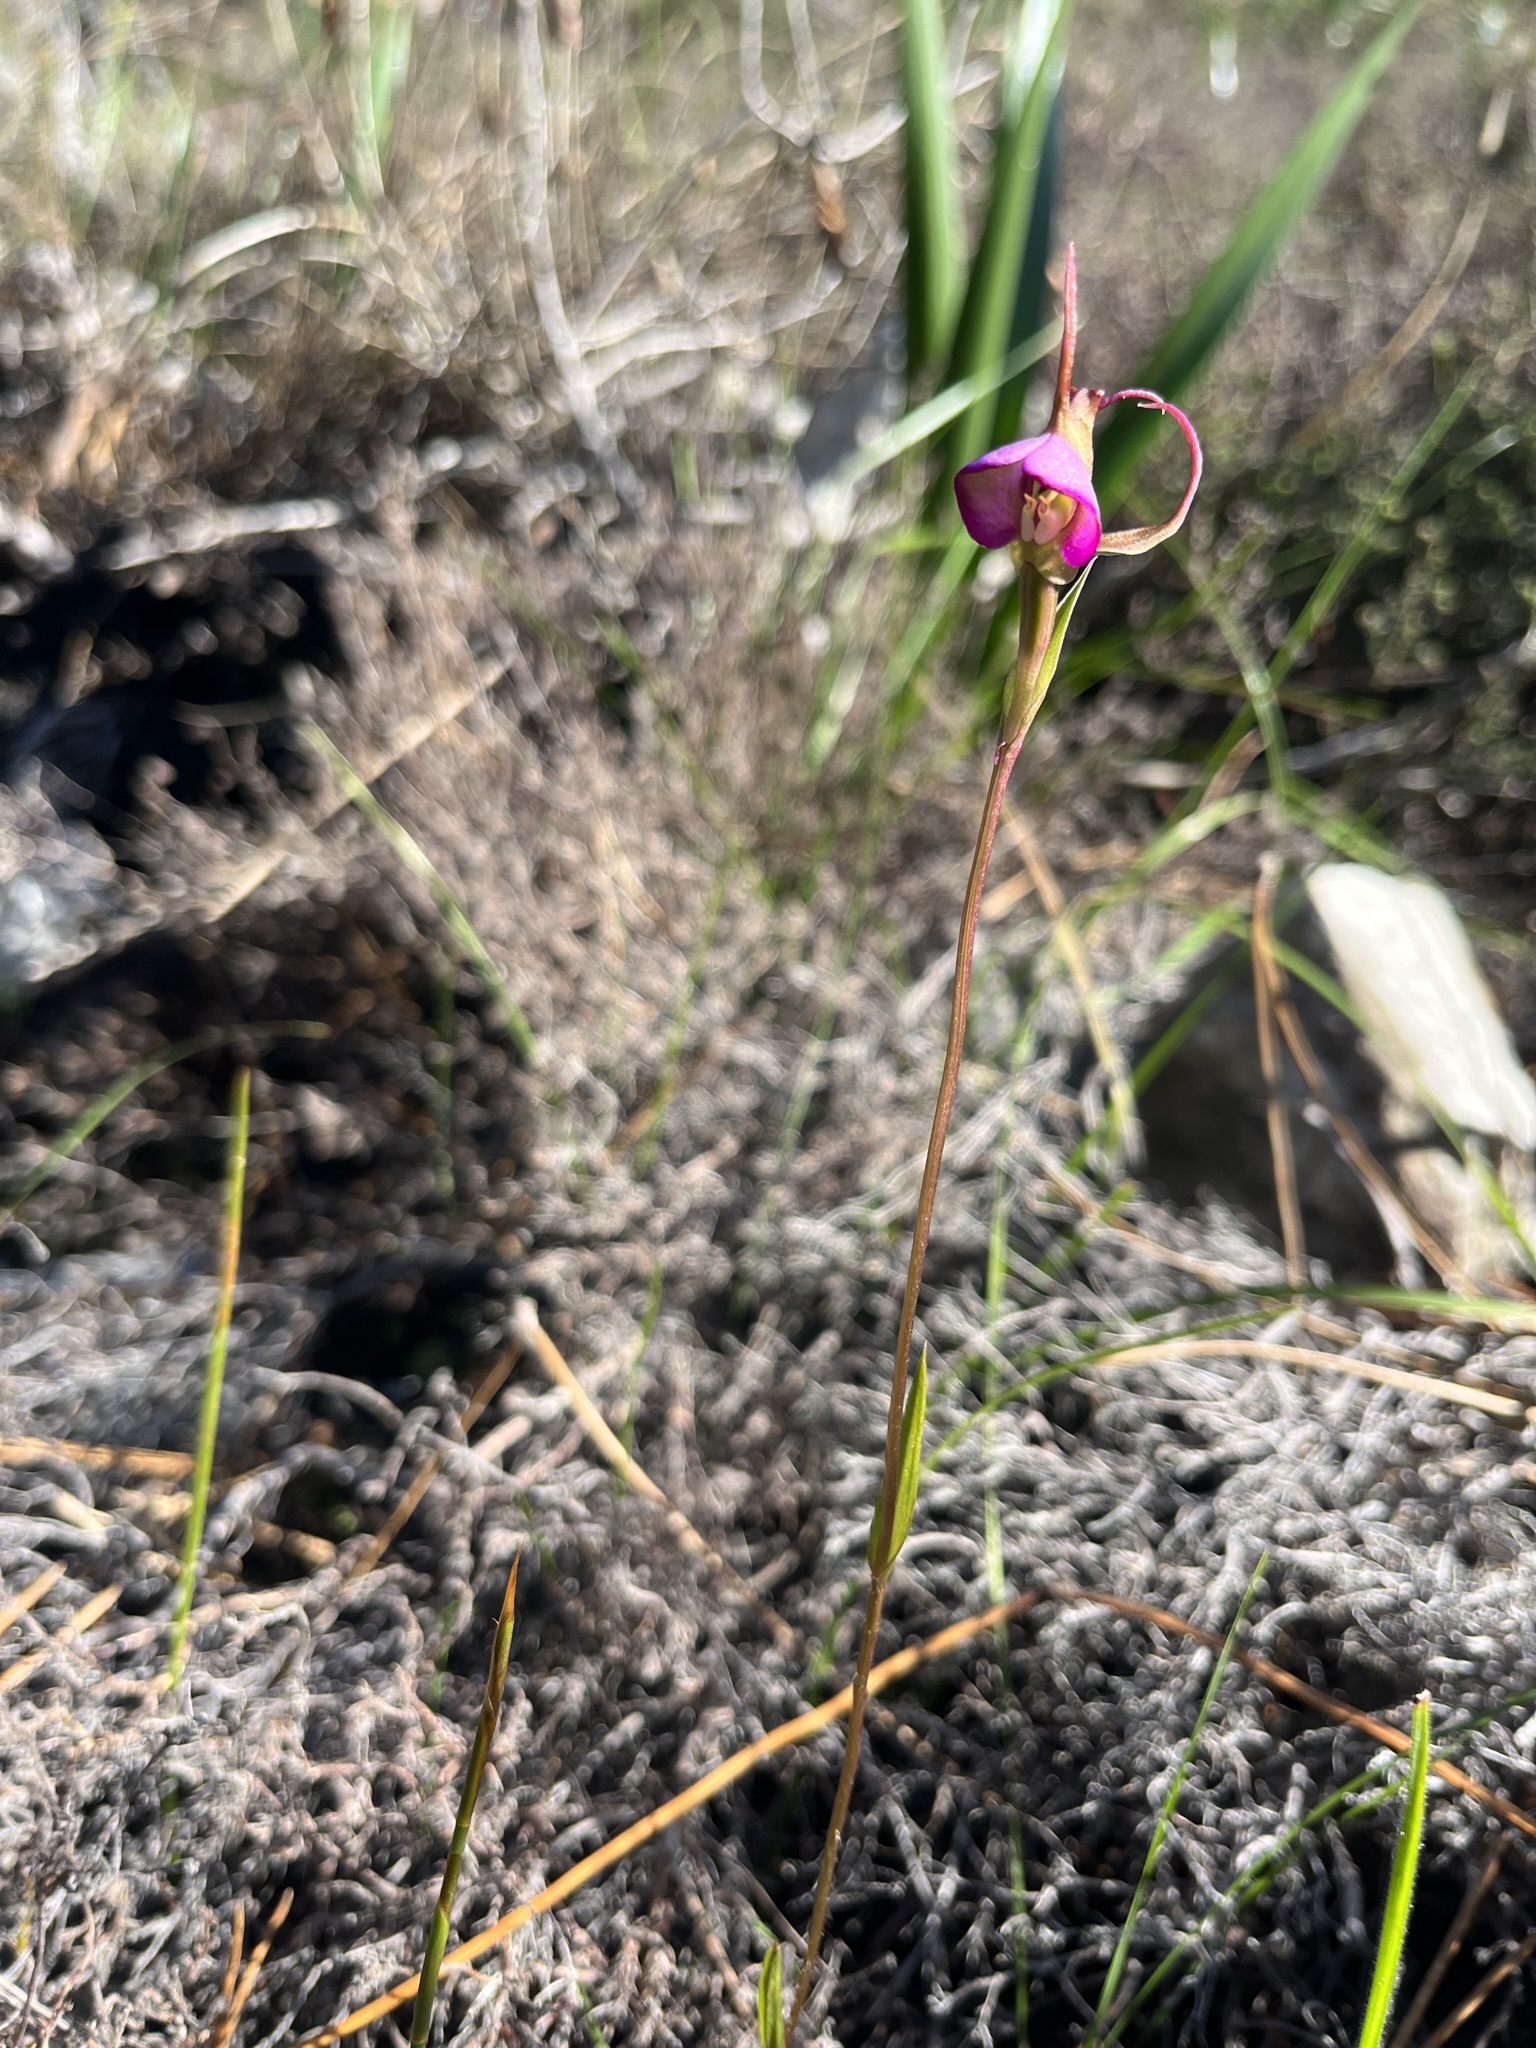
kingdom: Plantae
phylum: Tracheophyta
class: Liliopsida
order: Asparagales
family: Orchidaceae
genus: Disperis
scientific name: Disperis capensis
